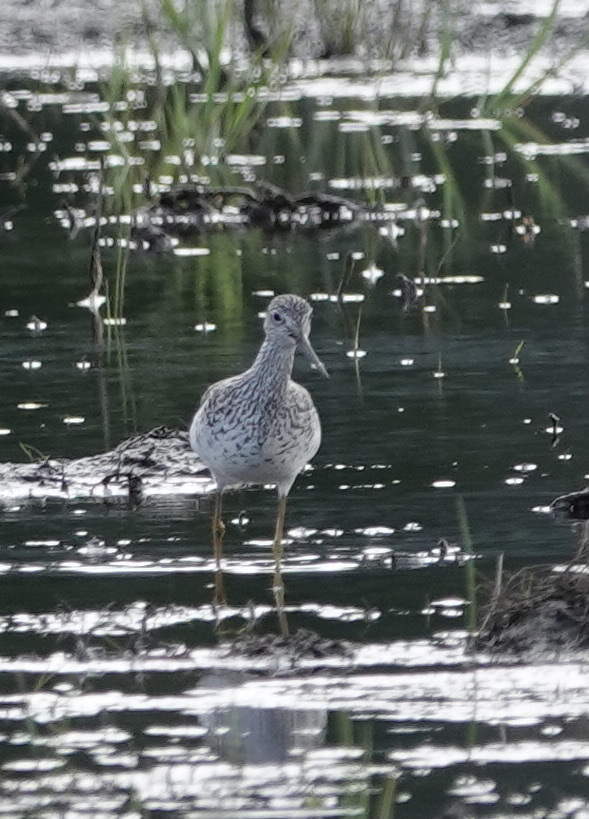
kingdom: Animalia
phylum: Chordata
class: Aves
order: Charadriiformes
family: Scolopacidae
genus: Tringa
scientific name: Tringa melanoleuca
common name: Greater yellowlegs
